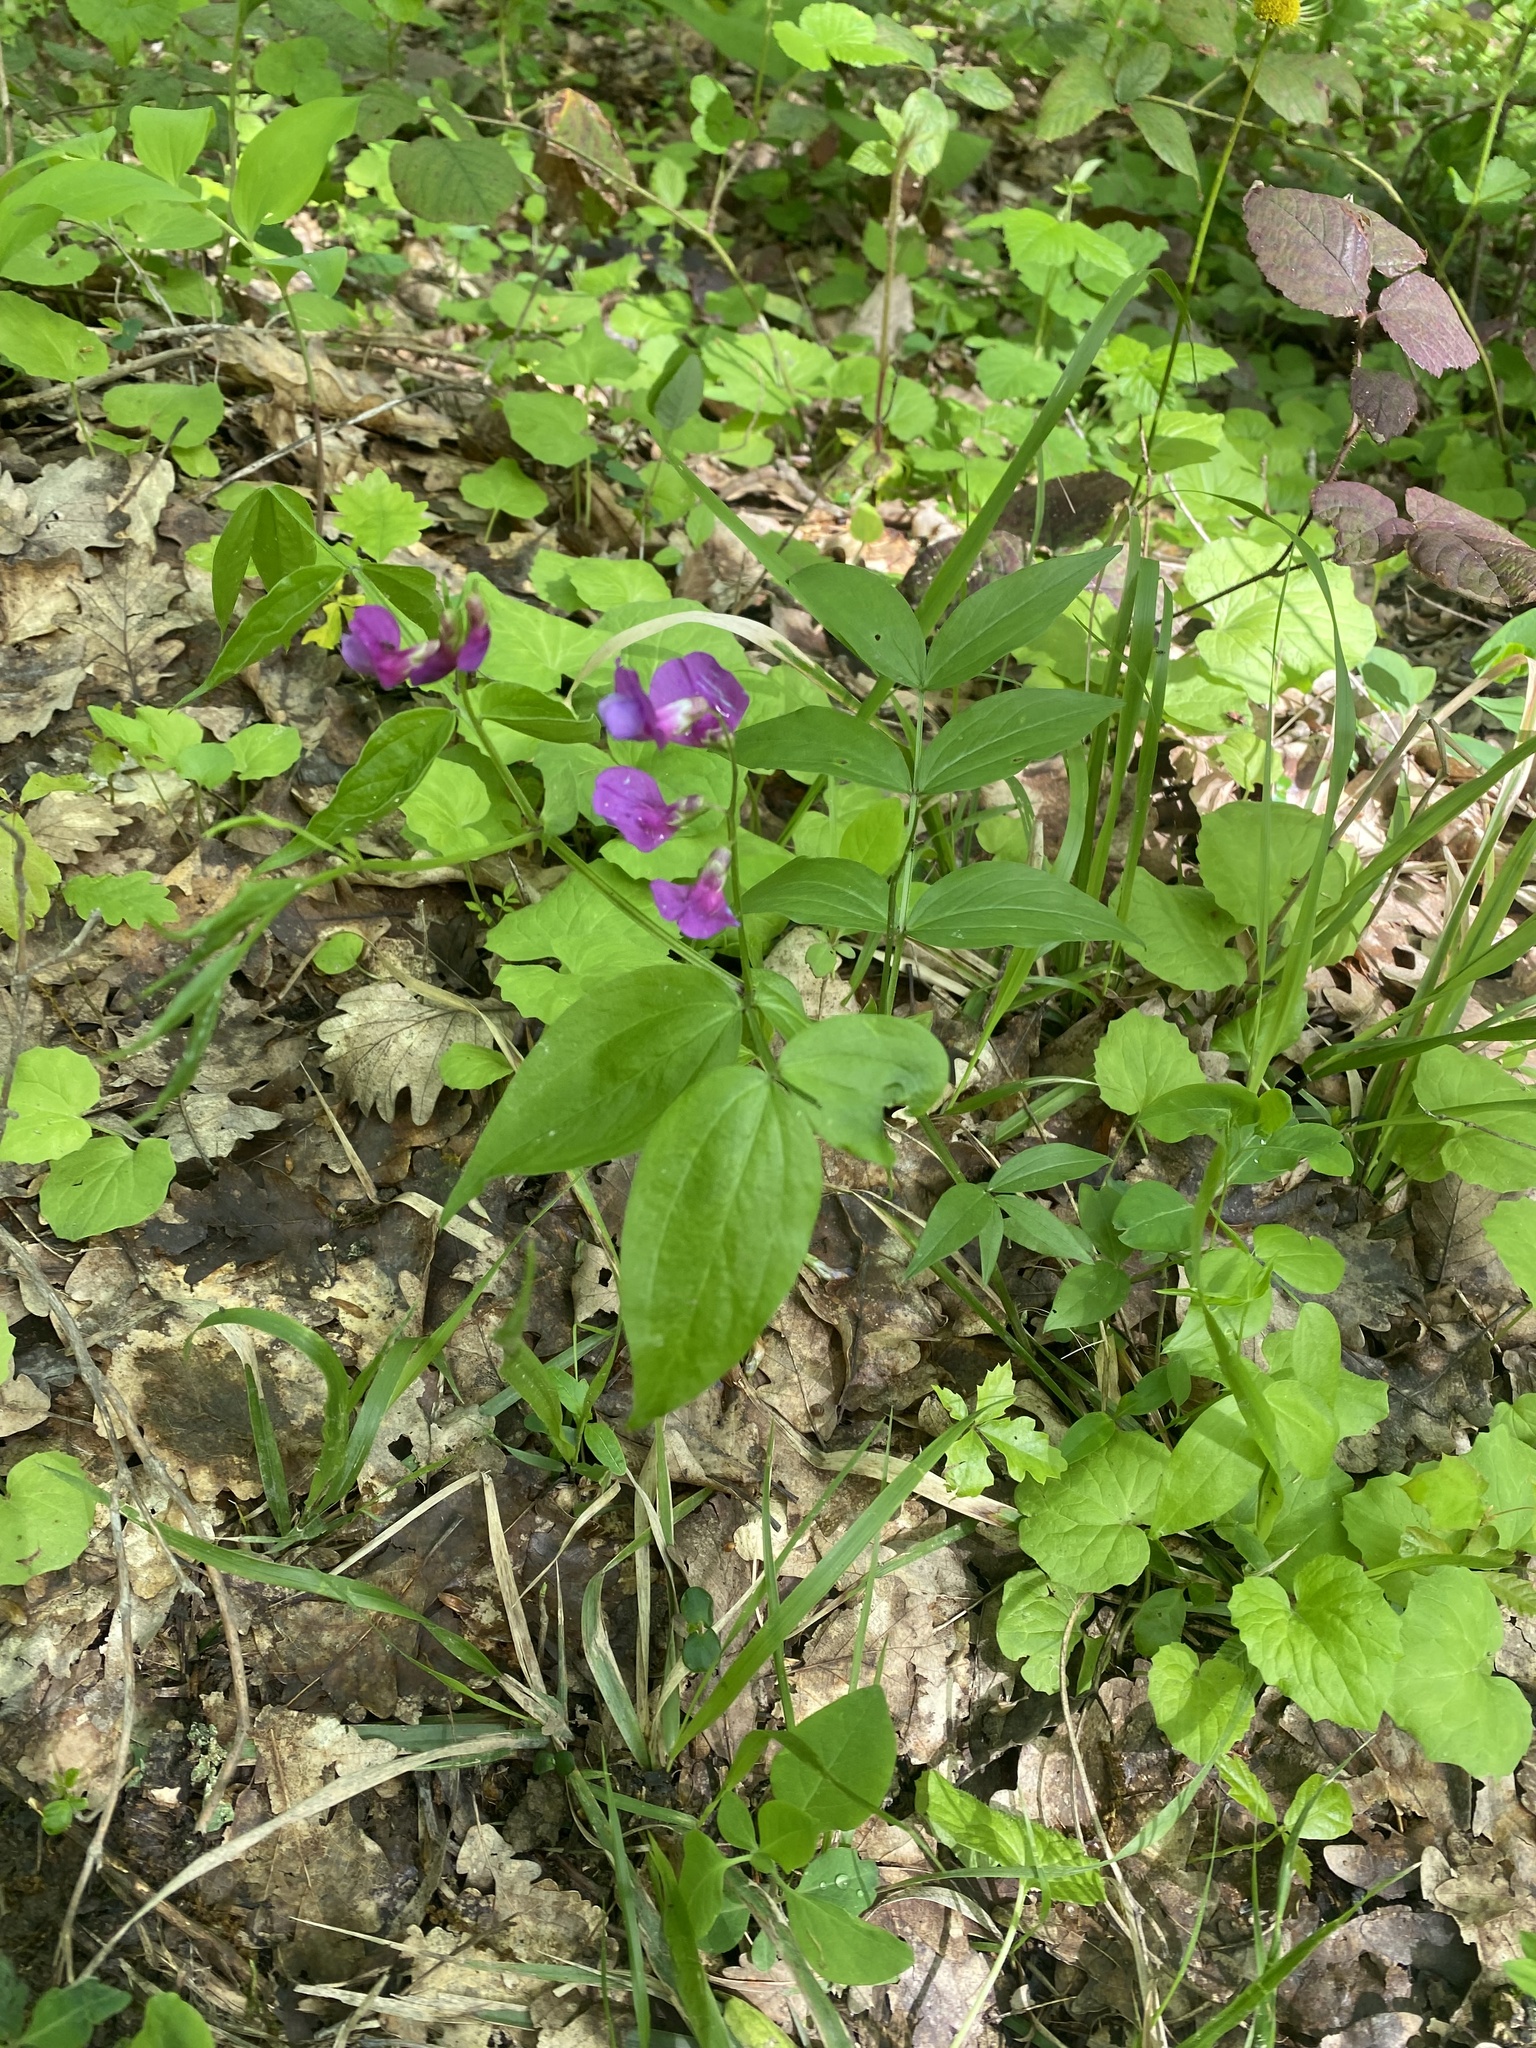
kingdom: Plantae
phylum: Tracheophyta
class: Magnoliopsida
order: Fabales
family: Fabaceae
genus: Lathyrus
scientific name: Lathyrus vernus
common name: Spring pea
